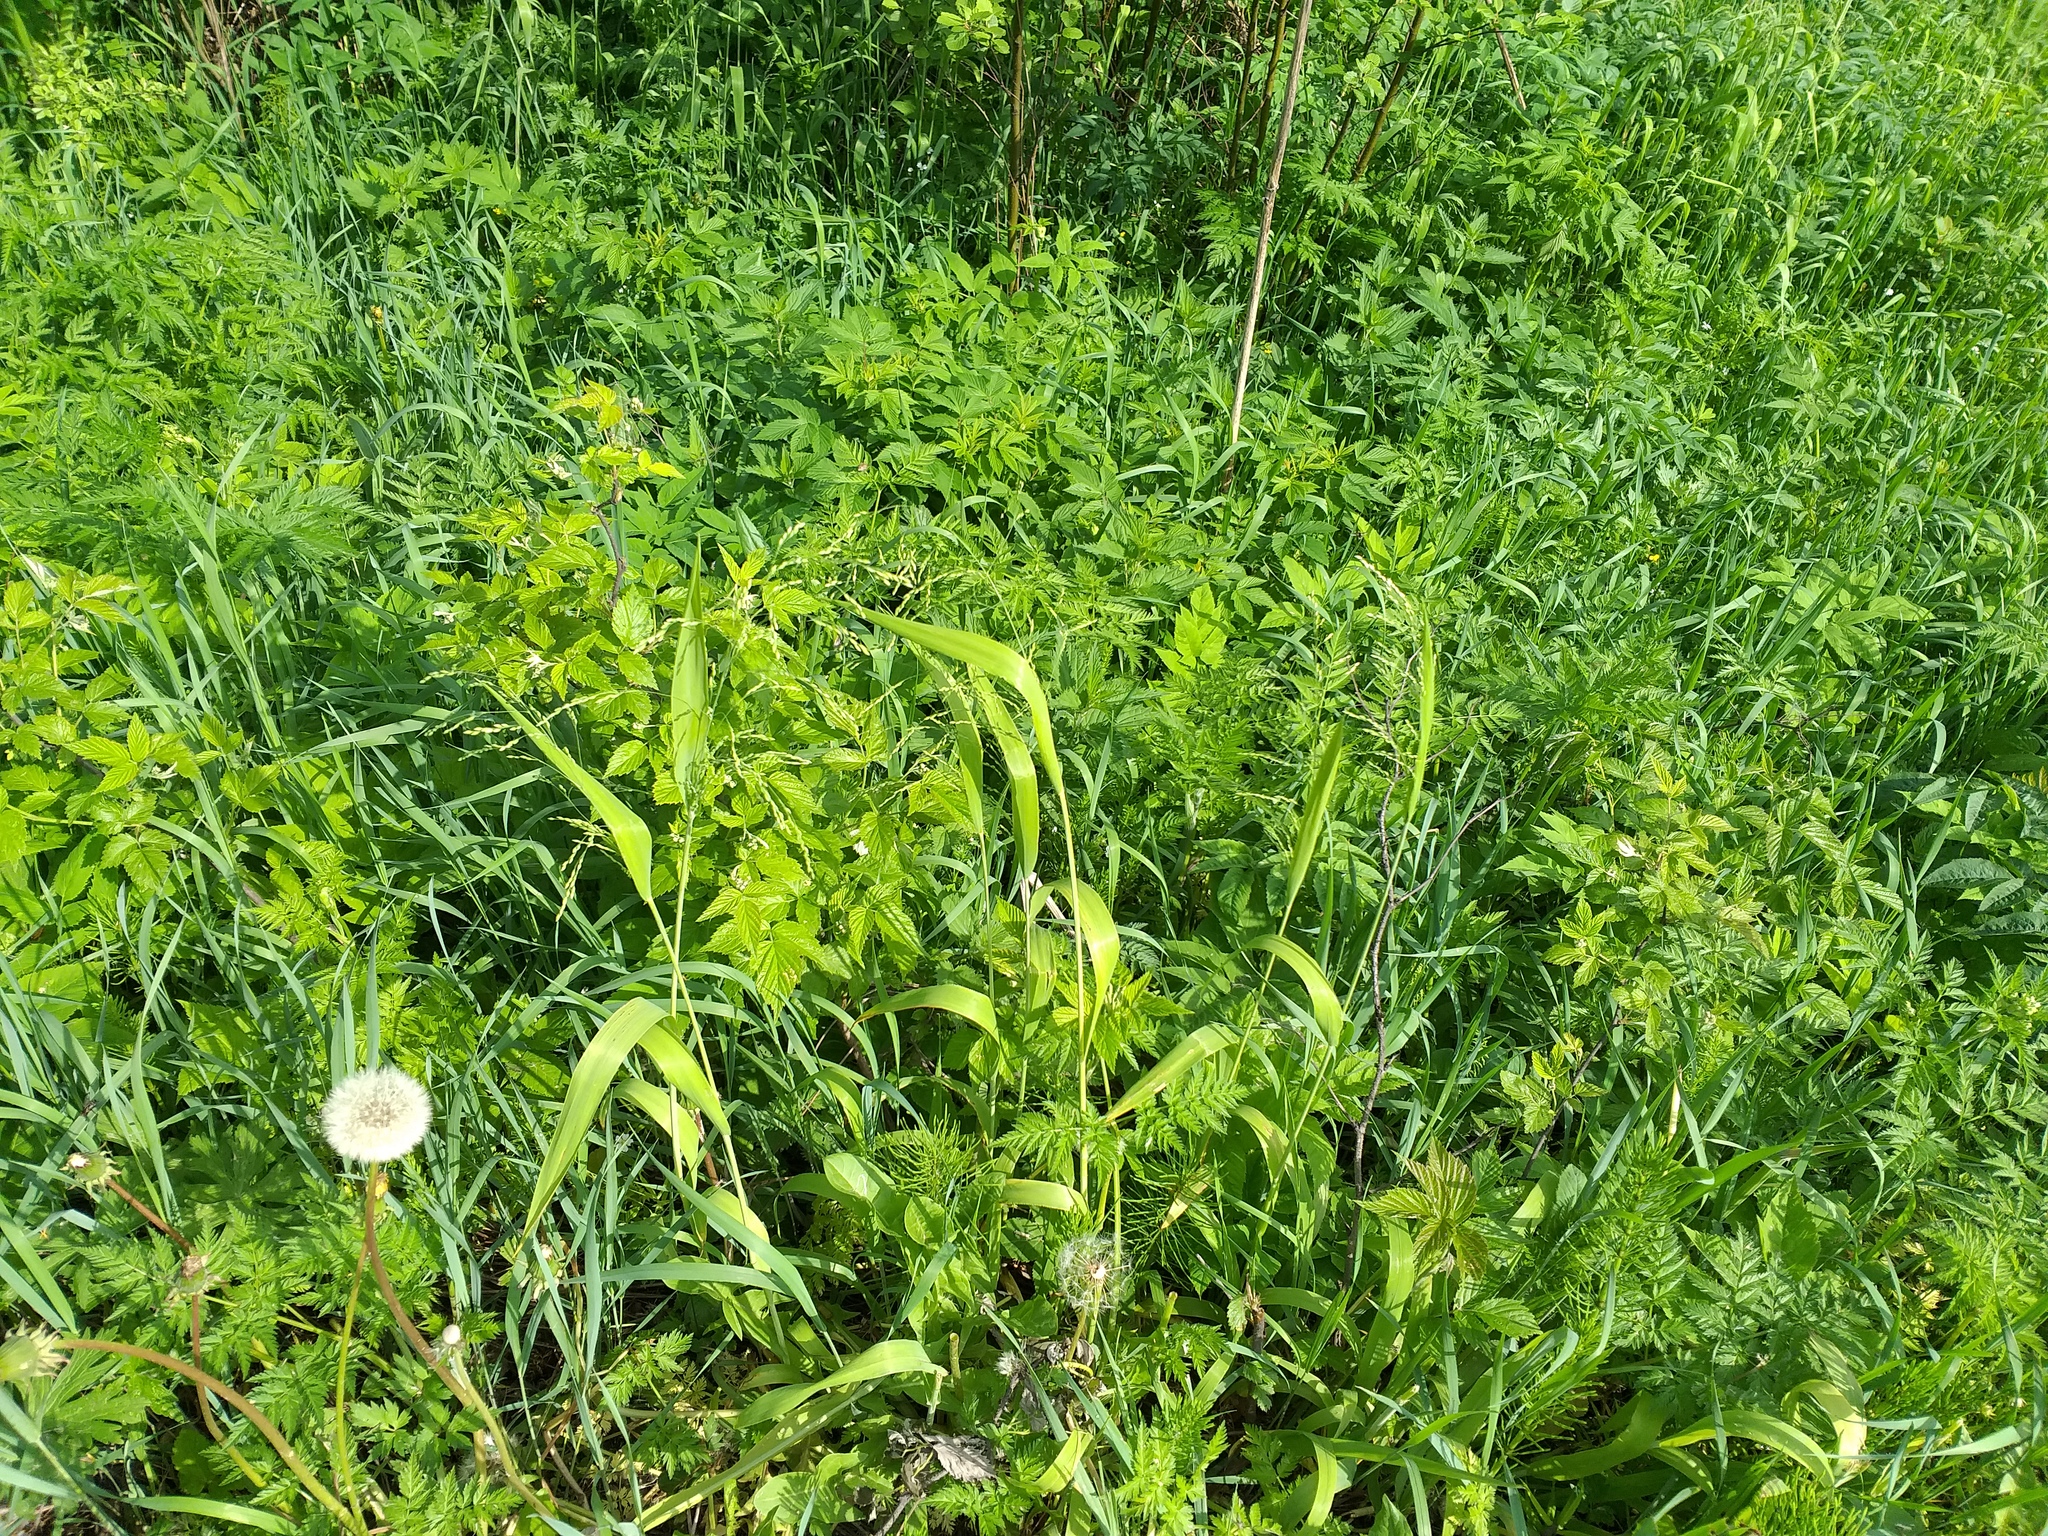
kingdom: Plantae
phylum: Tracheophyta
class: Liliopsida
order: Poales
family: Poaceae
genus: Milium
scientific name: Milium effusum
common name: Wood millet
